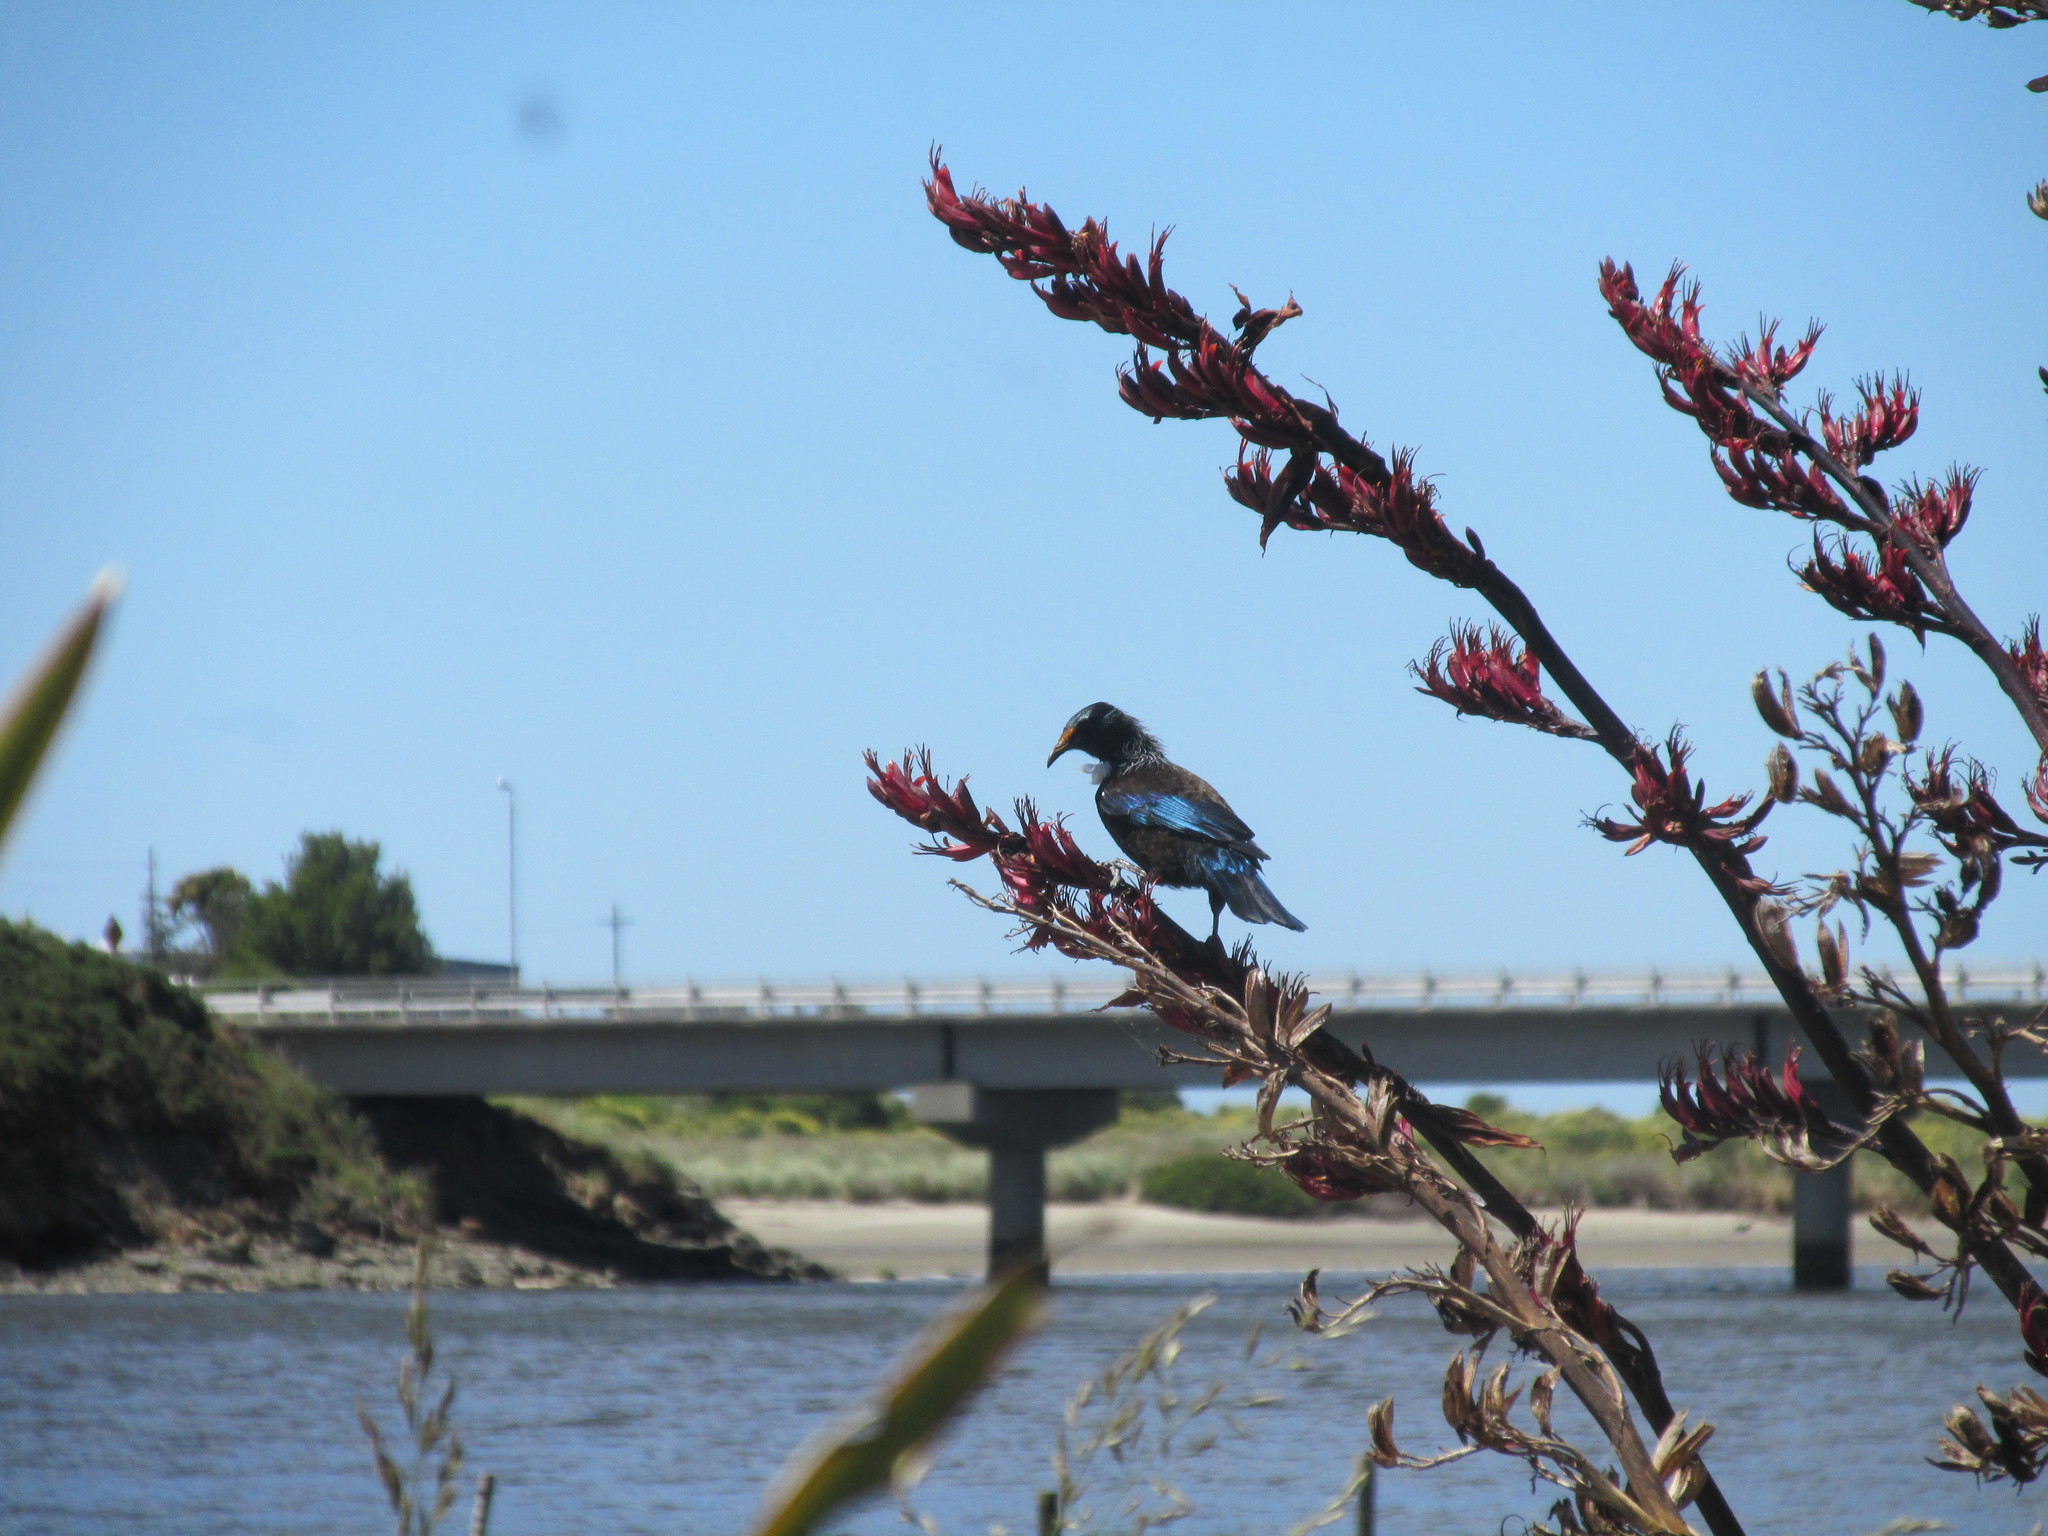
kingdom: Animalia
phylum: Chordata
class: Aves
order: Passeriformes
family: Meliphagidae
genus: Prosthemadera
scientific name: Prosthemadera novaeseelandiae
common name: Tui
